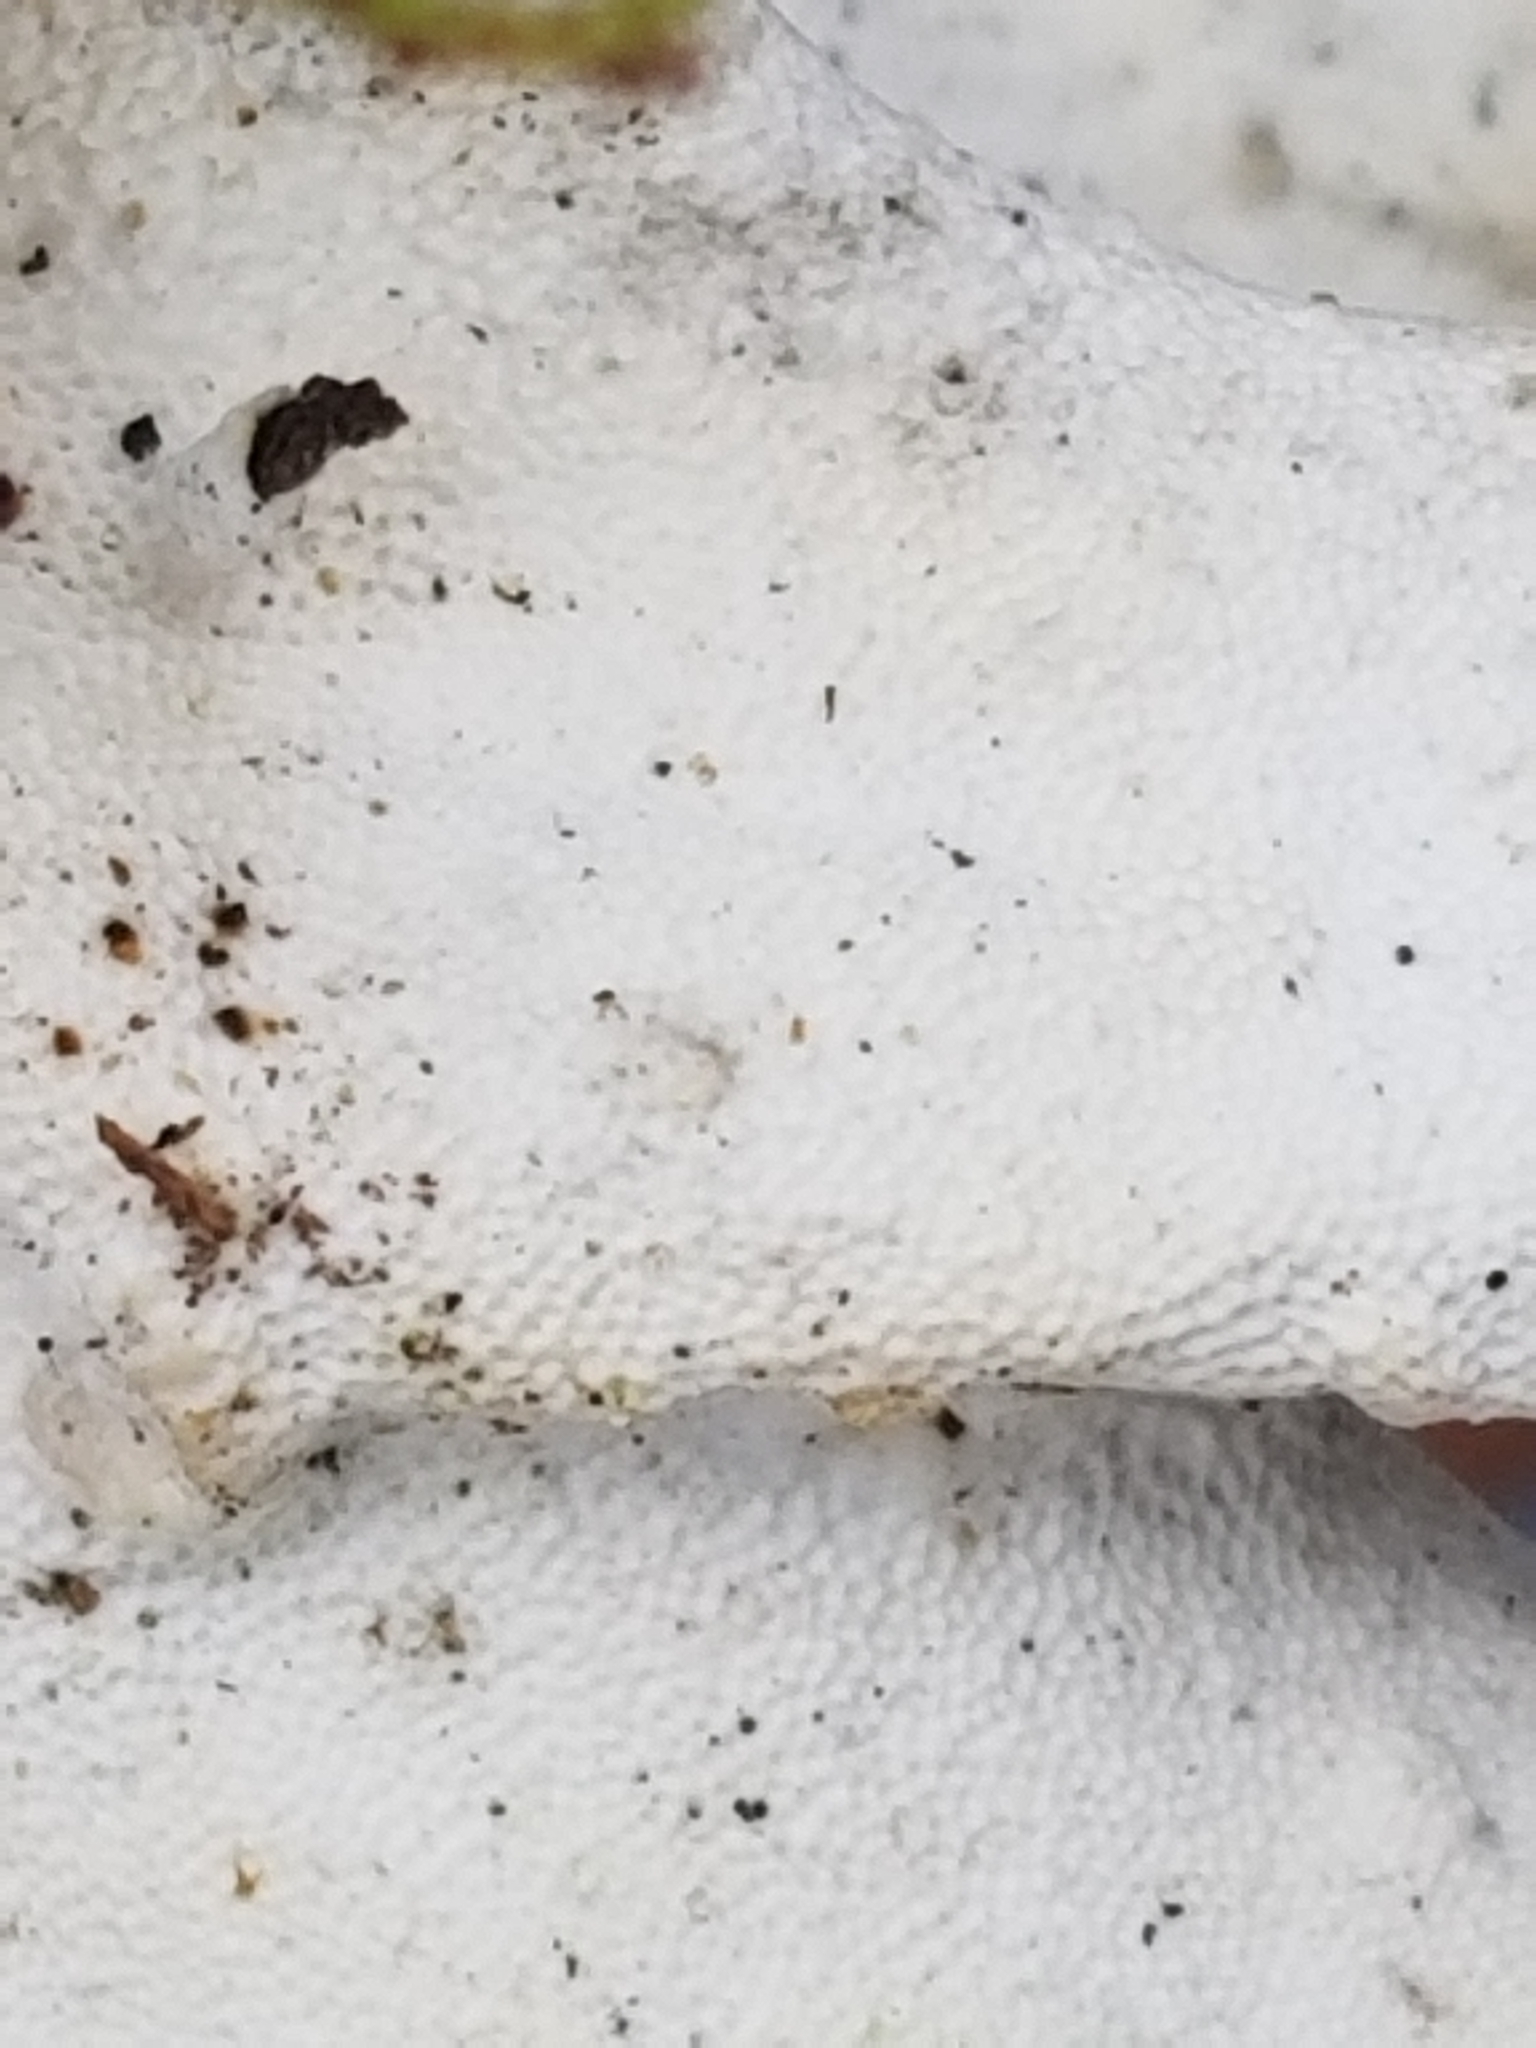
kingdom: Fungi
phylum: Basidiomycota
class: Agaricomycetes
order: Polyporales
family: Polyporaceae
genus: Trametes
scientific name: Trametes versicolor
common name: Turkeytail
